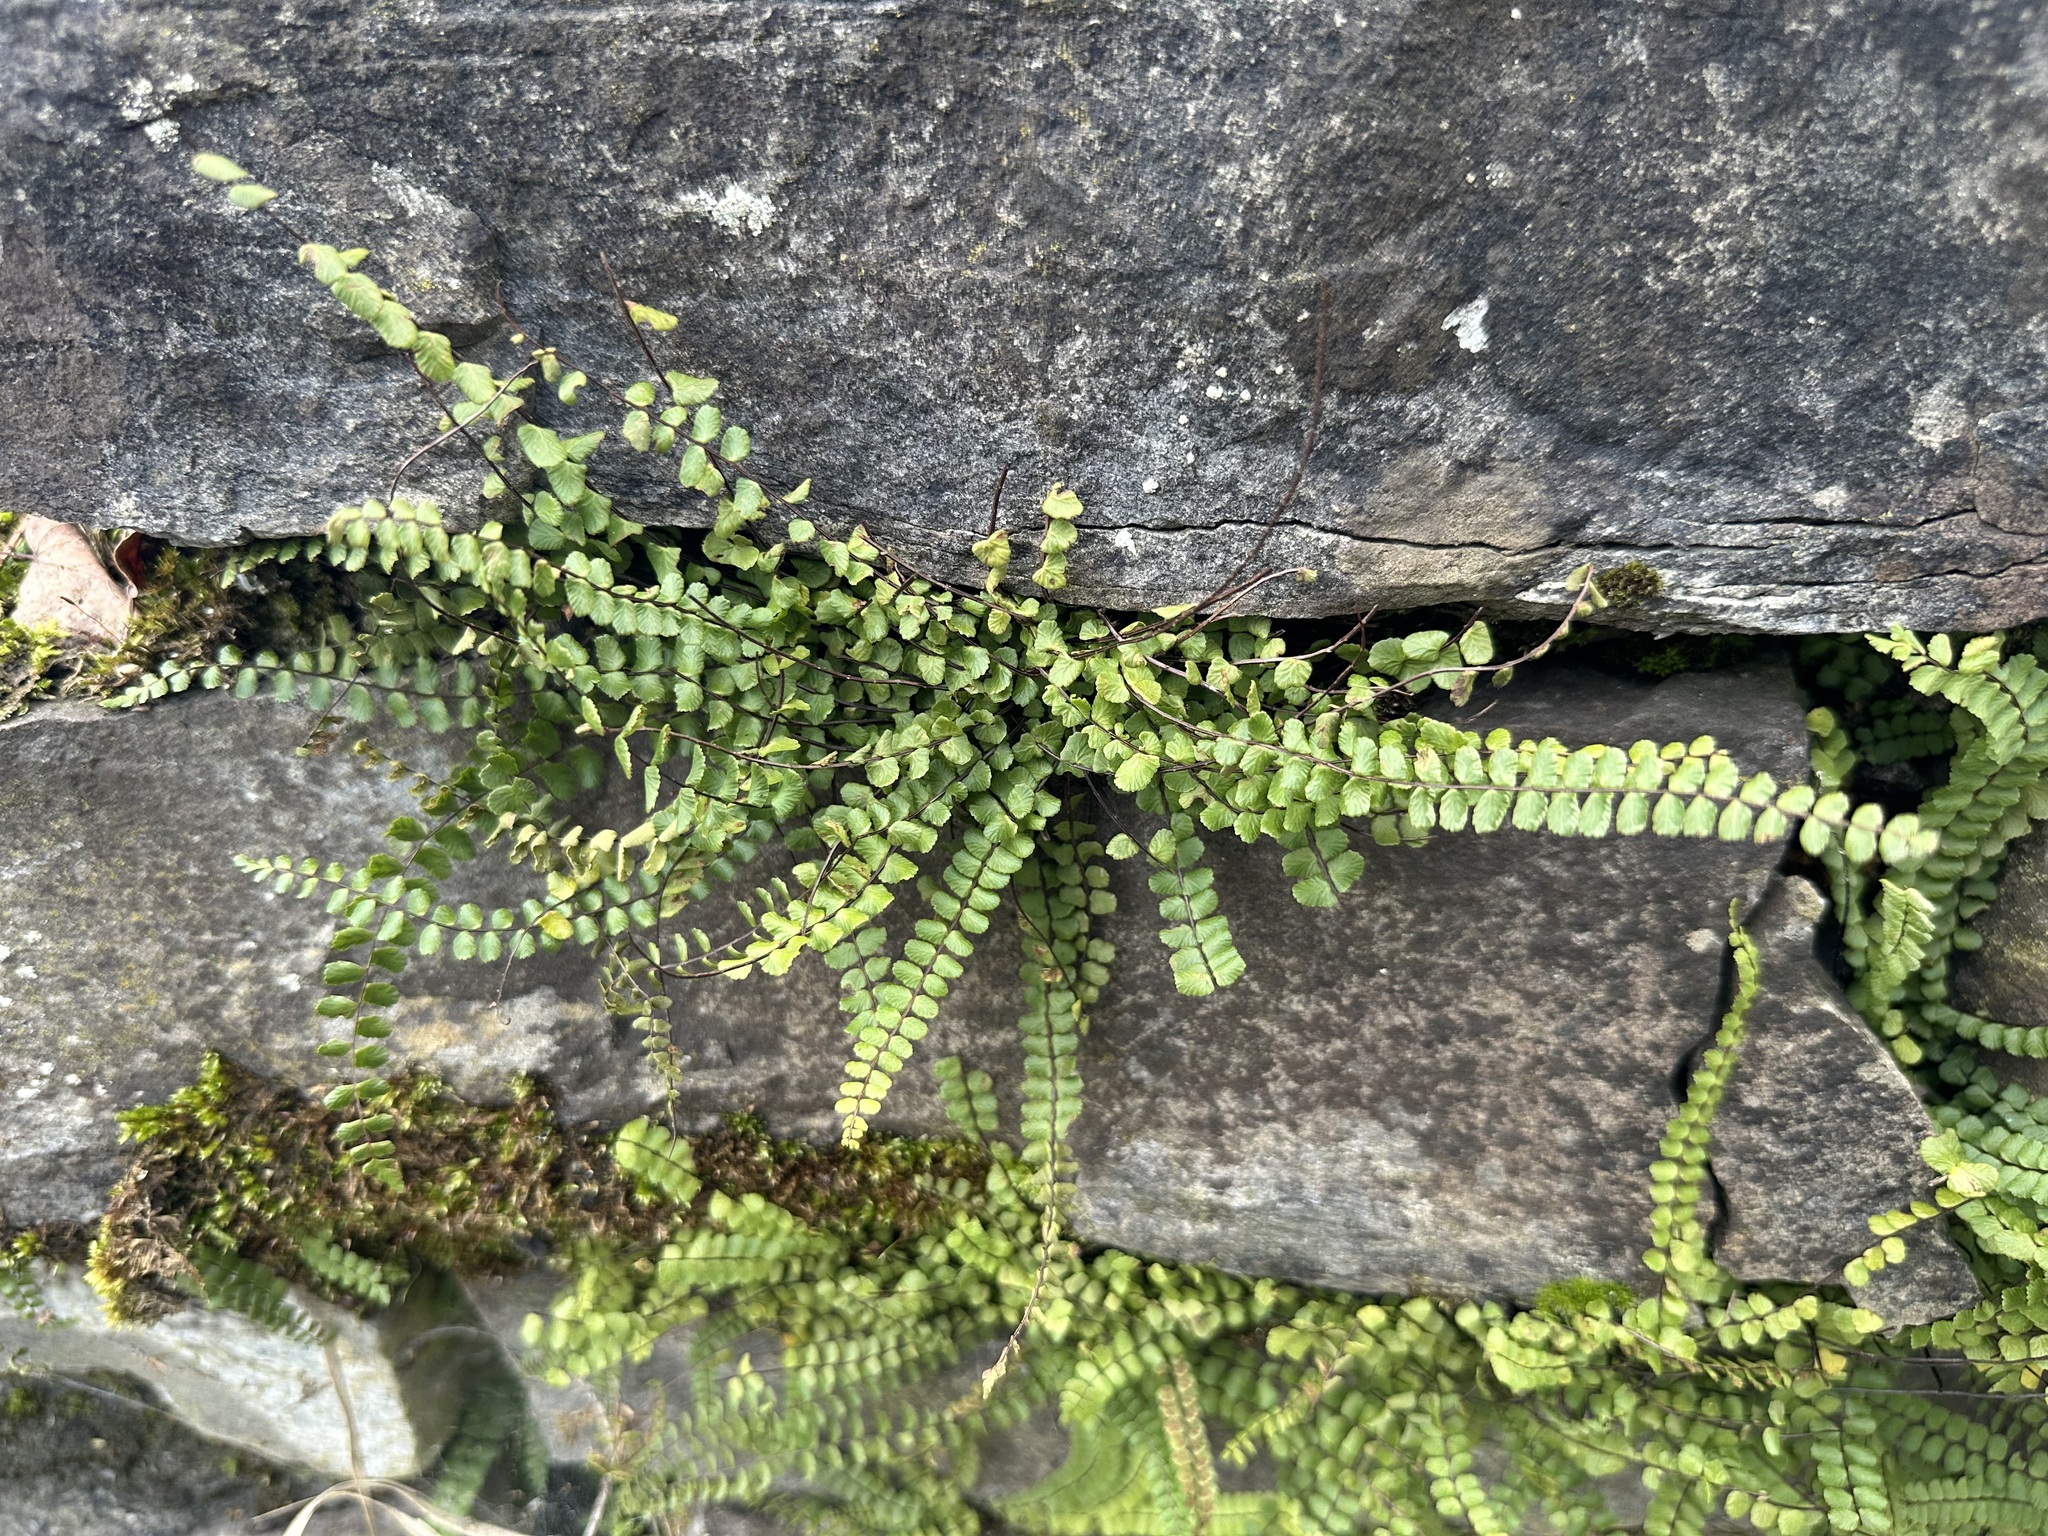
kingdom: Plantae
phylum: Tracheophyta
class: Polypodiopsida
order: Polypodiales
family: Aspleniaceae
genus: Asplenium
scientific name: Asplenium trichomanes
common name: Maidenhair spleenwort
